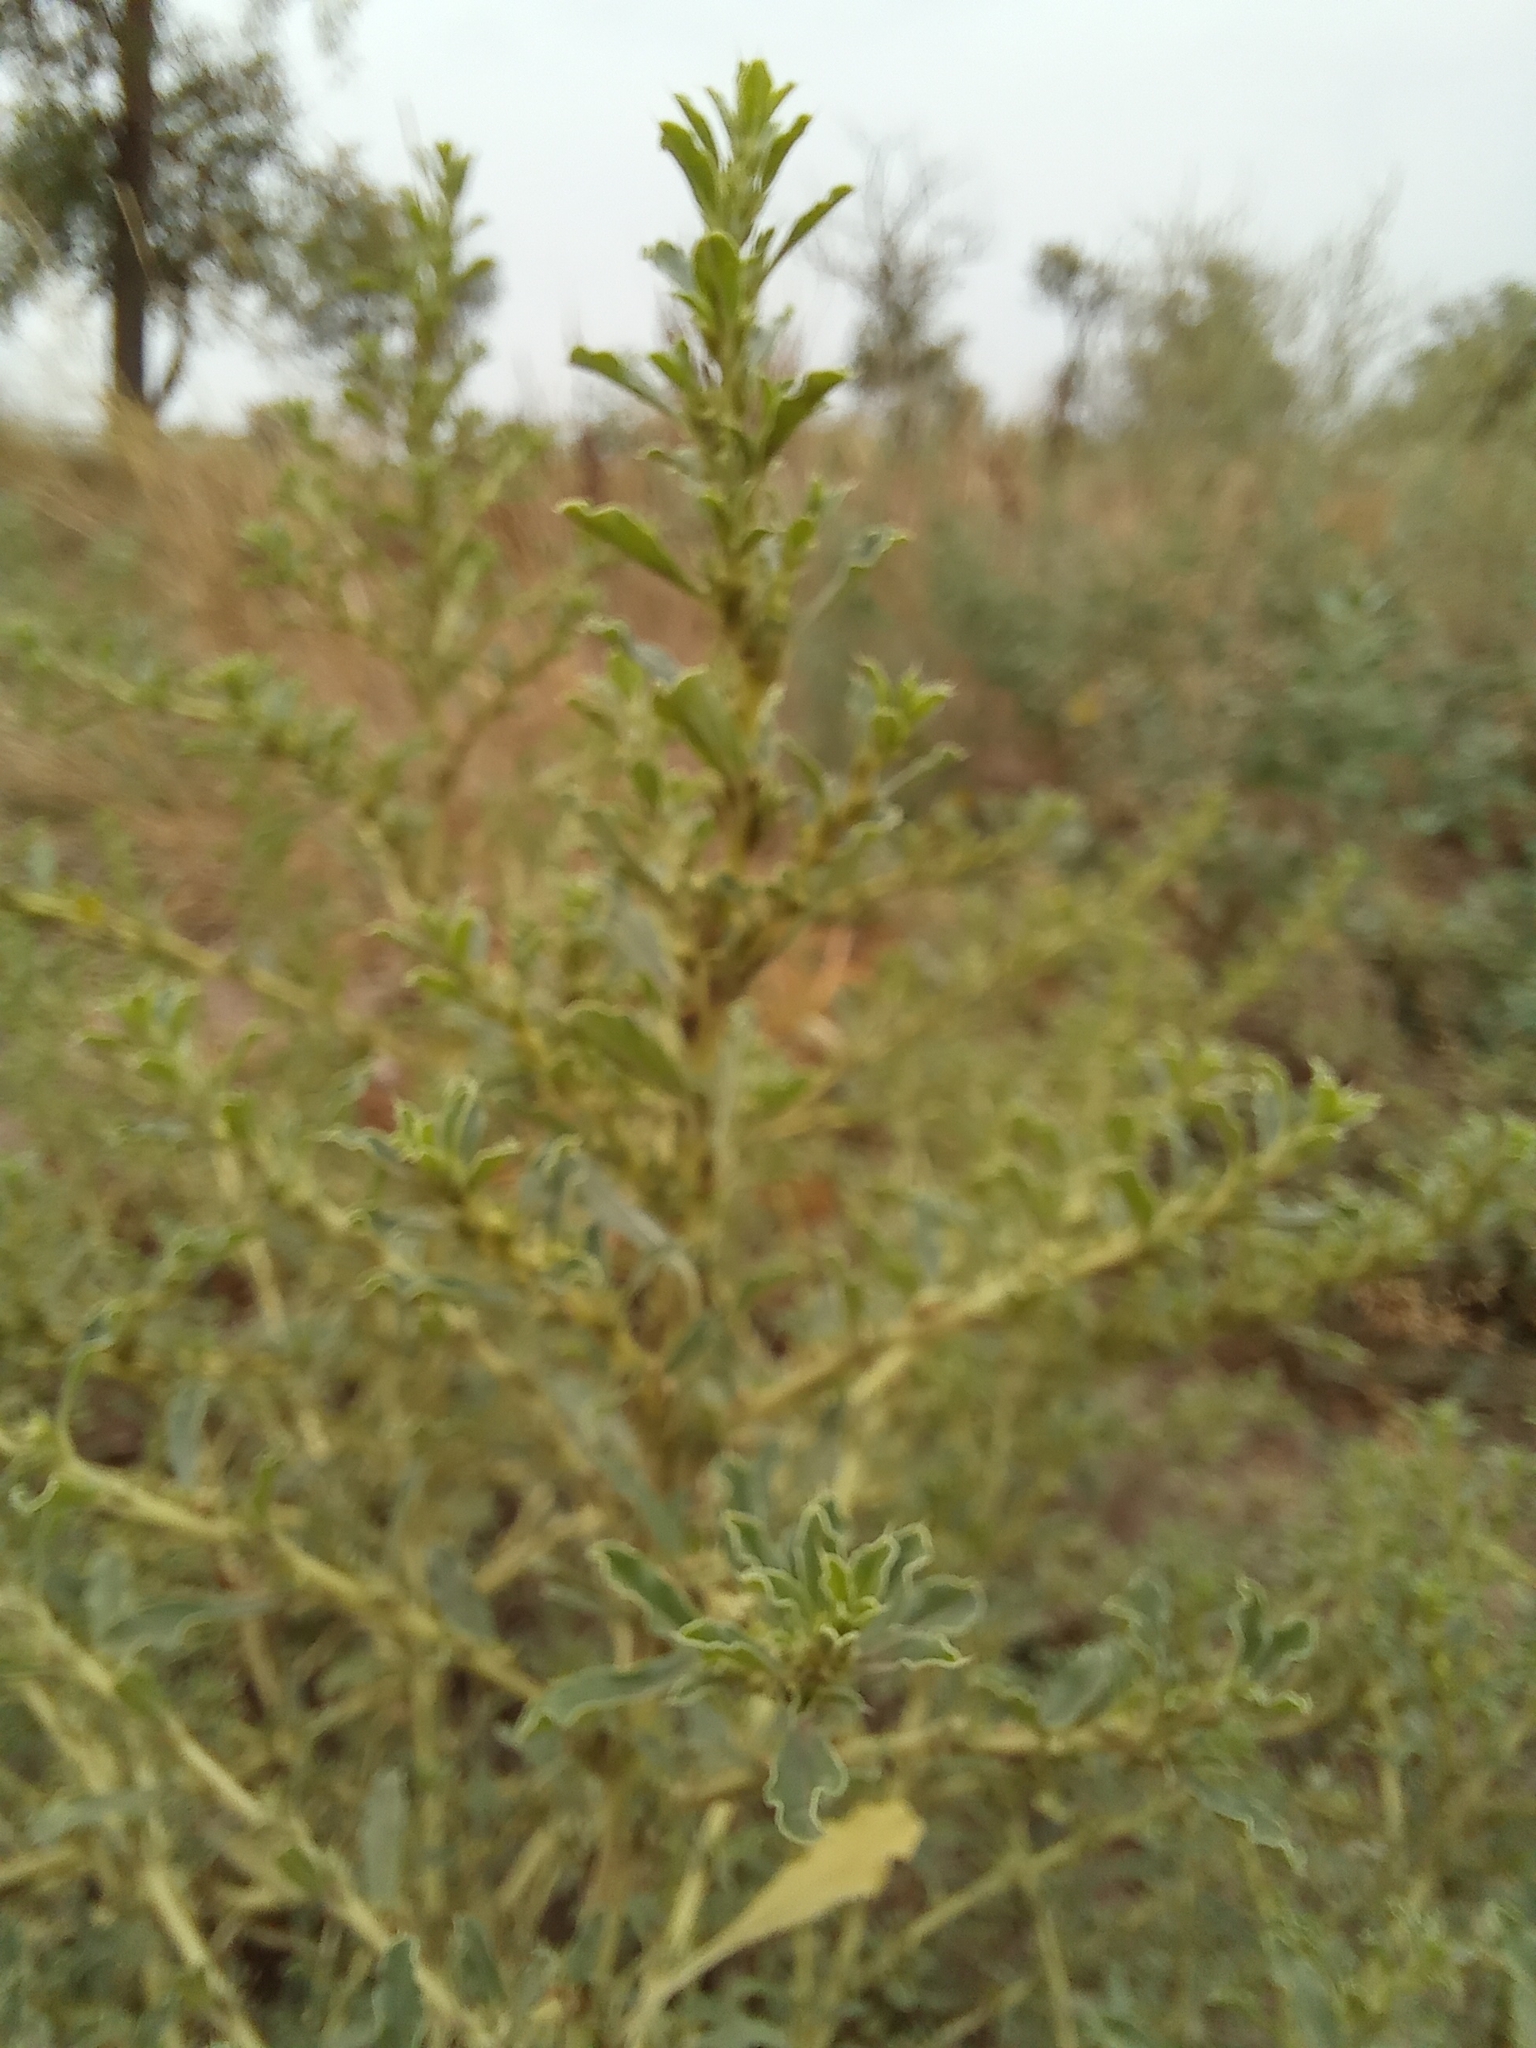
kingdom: Plantae
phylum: Tracheophyta
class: Magnoliopsida
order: Caryophyllales
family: Amaranthaceae
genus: Amaranthus
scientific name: Amaranthus albus
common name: White pigweed
